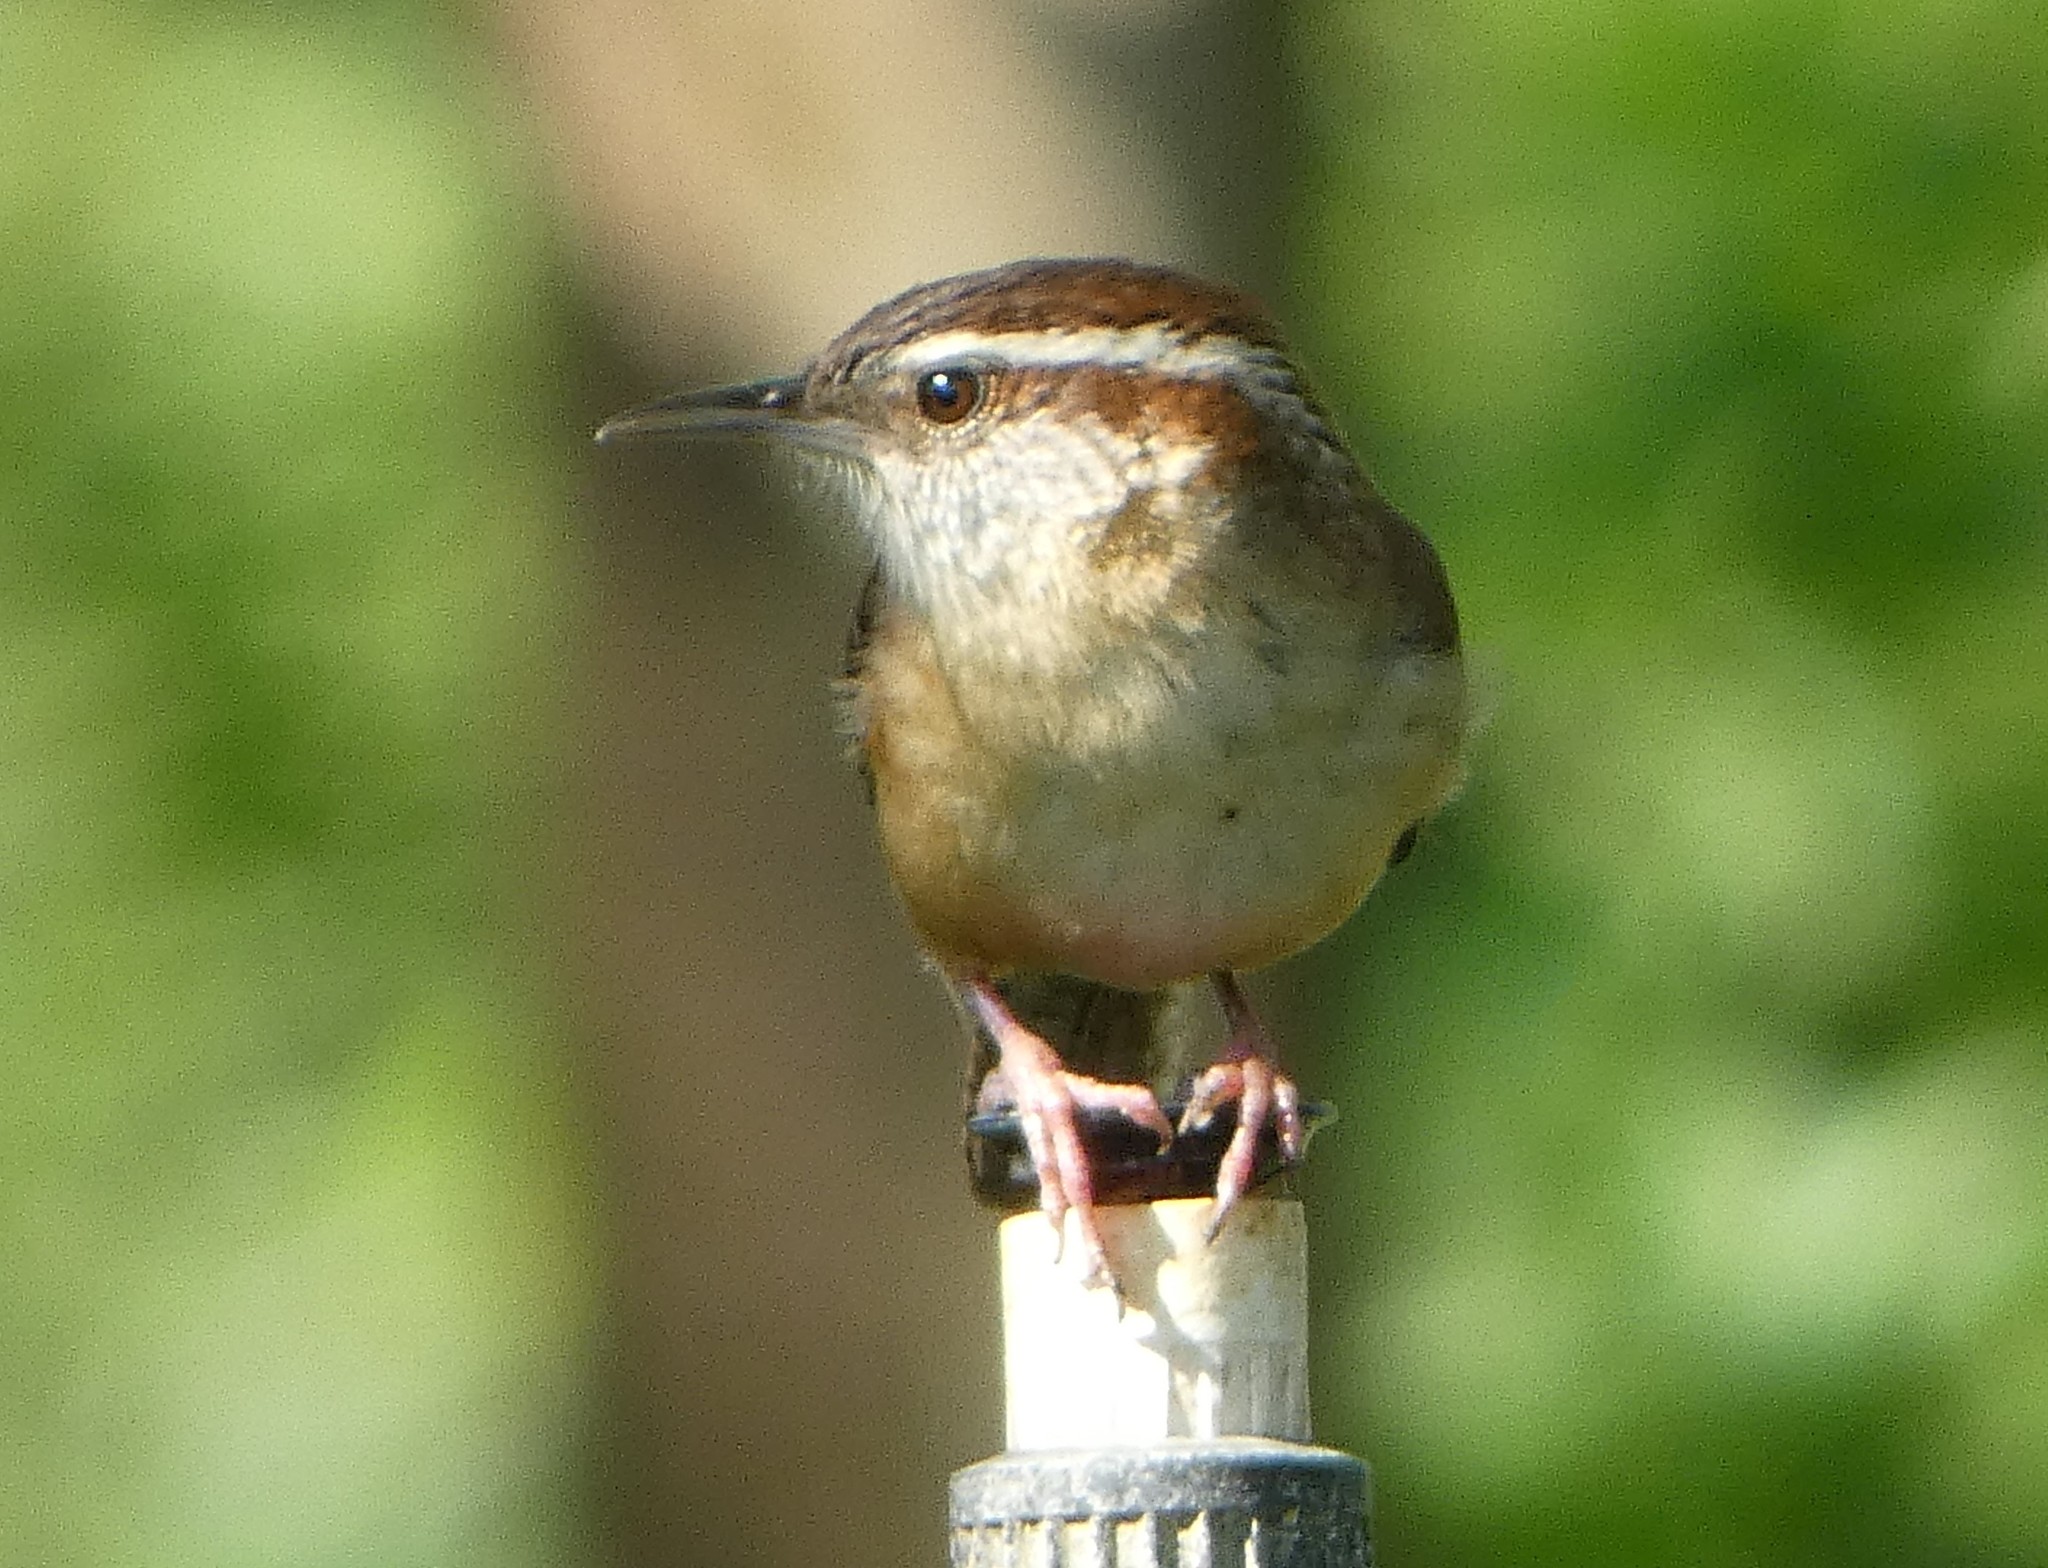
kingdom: Animalia
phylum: Chordata
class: Aves
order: Passeriformes
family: Troglodytidae
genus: Thryothorus
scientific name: Thryothorus ludovicianus
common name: Carolina wren
